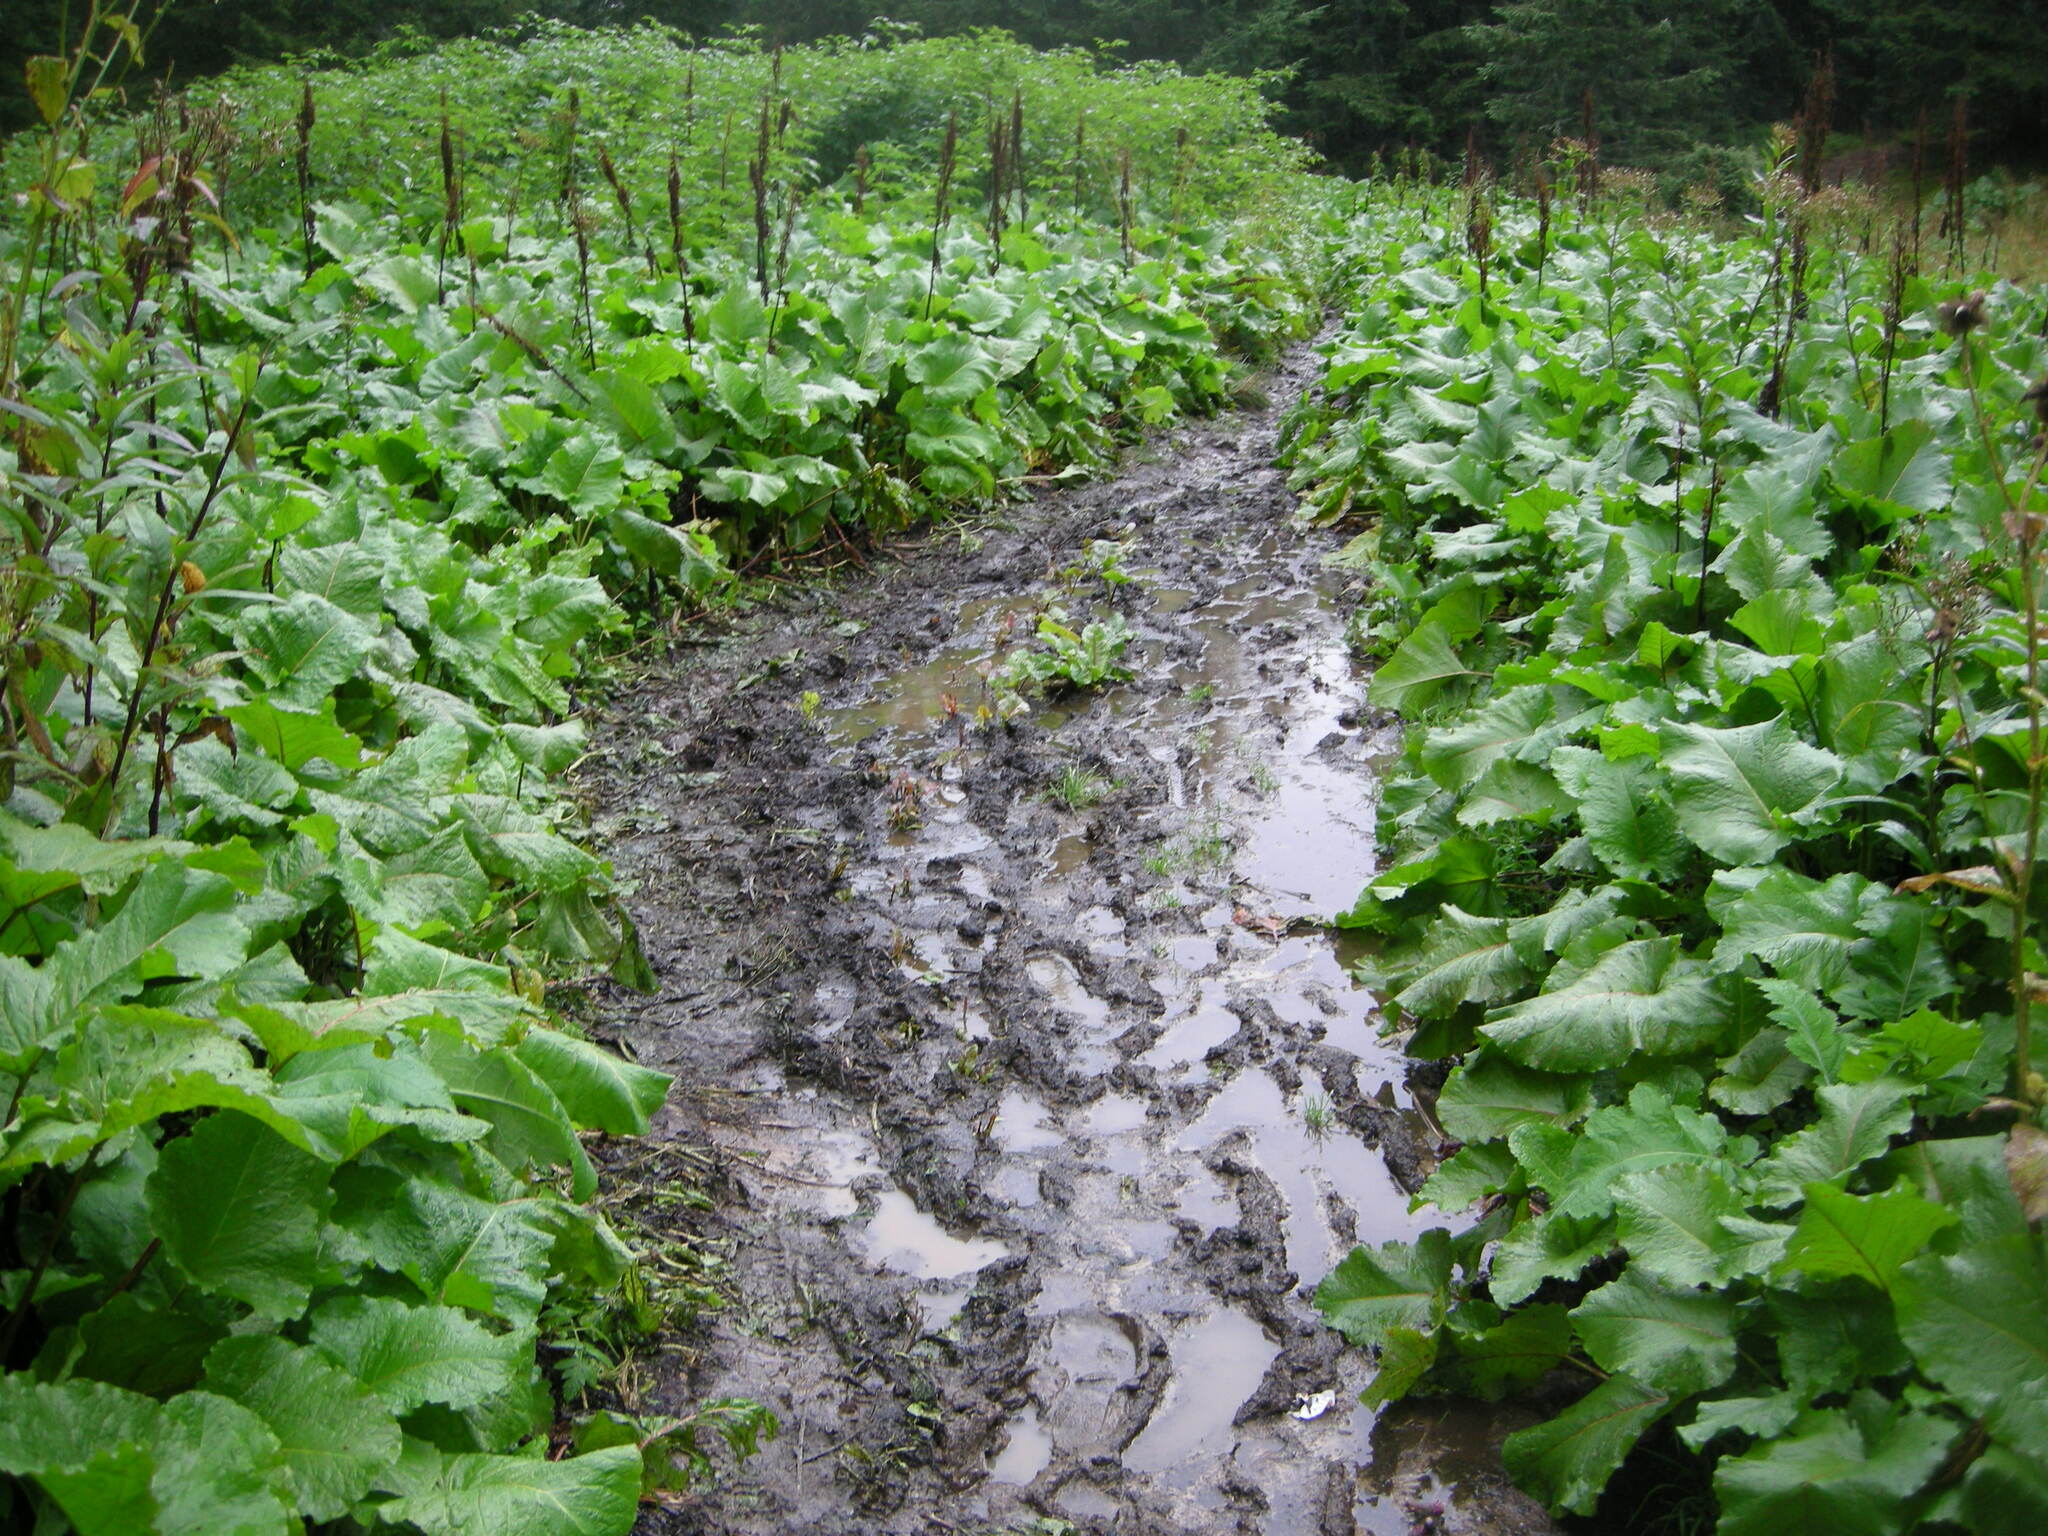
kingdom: Plantae
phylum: Tracheophyta
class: Magnoliopsida
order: Caryophyllales
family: Polygonaceae
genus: Rumex
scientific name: Rumex alpinus
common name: Alpine dock
